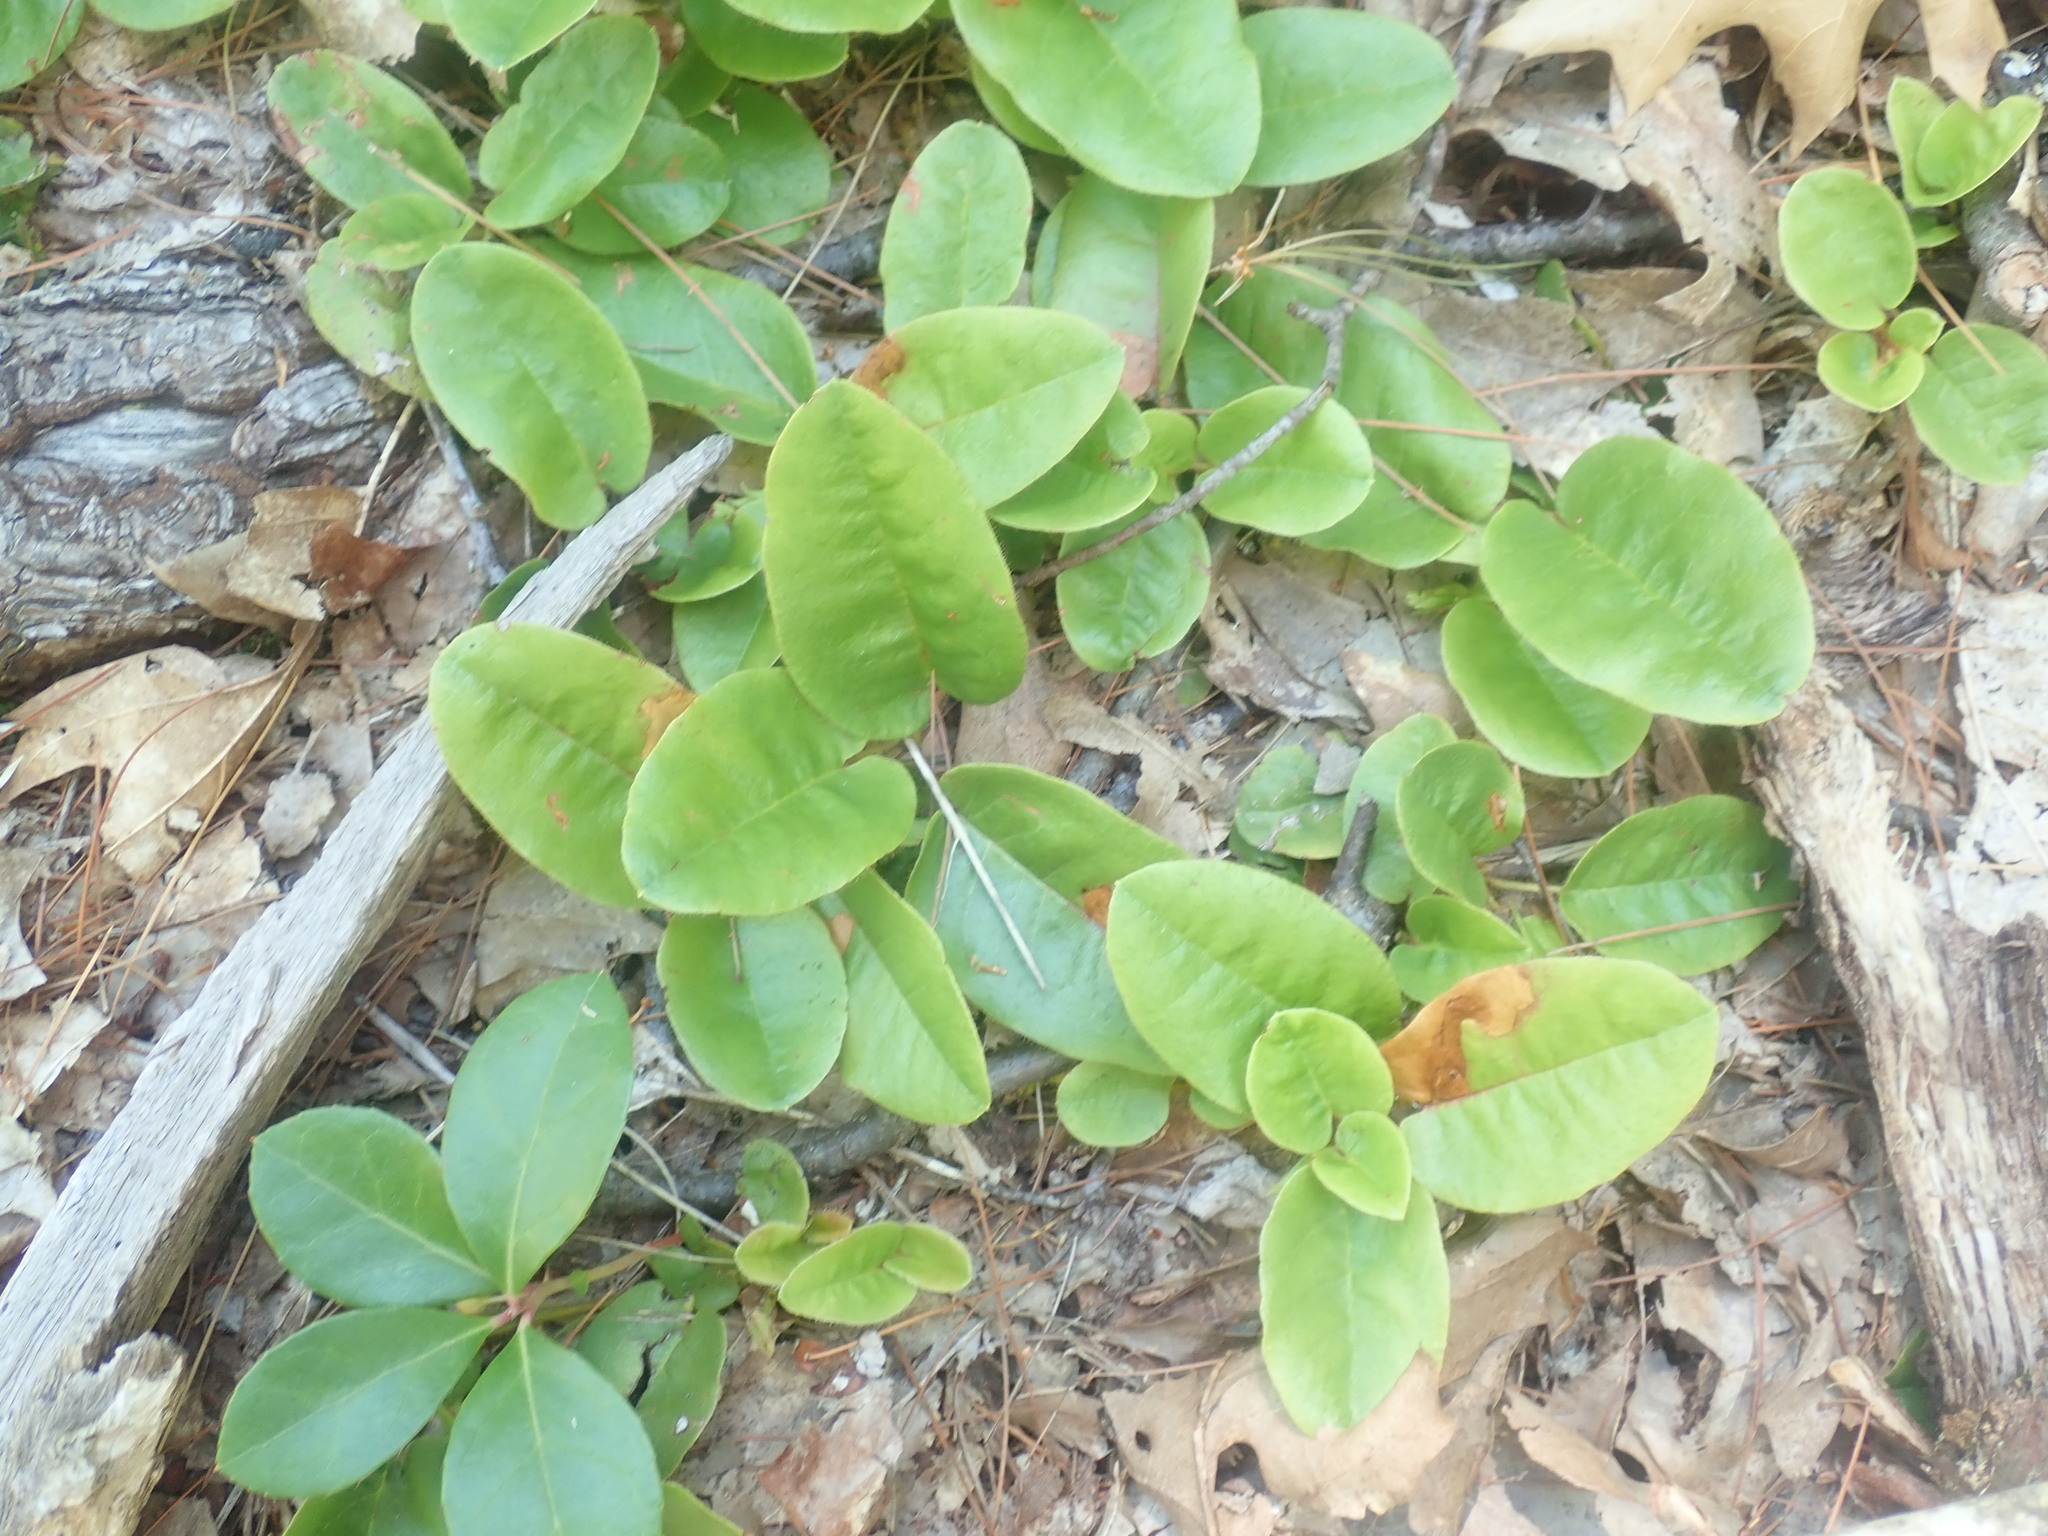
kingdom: Plantae
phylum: Tracheophyta
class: Magnoliopsida
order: Ericales
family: Ericaceae
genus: Epigaea
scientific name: Epigaea repens
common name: Gravelroot
